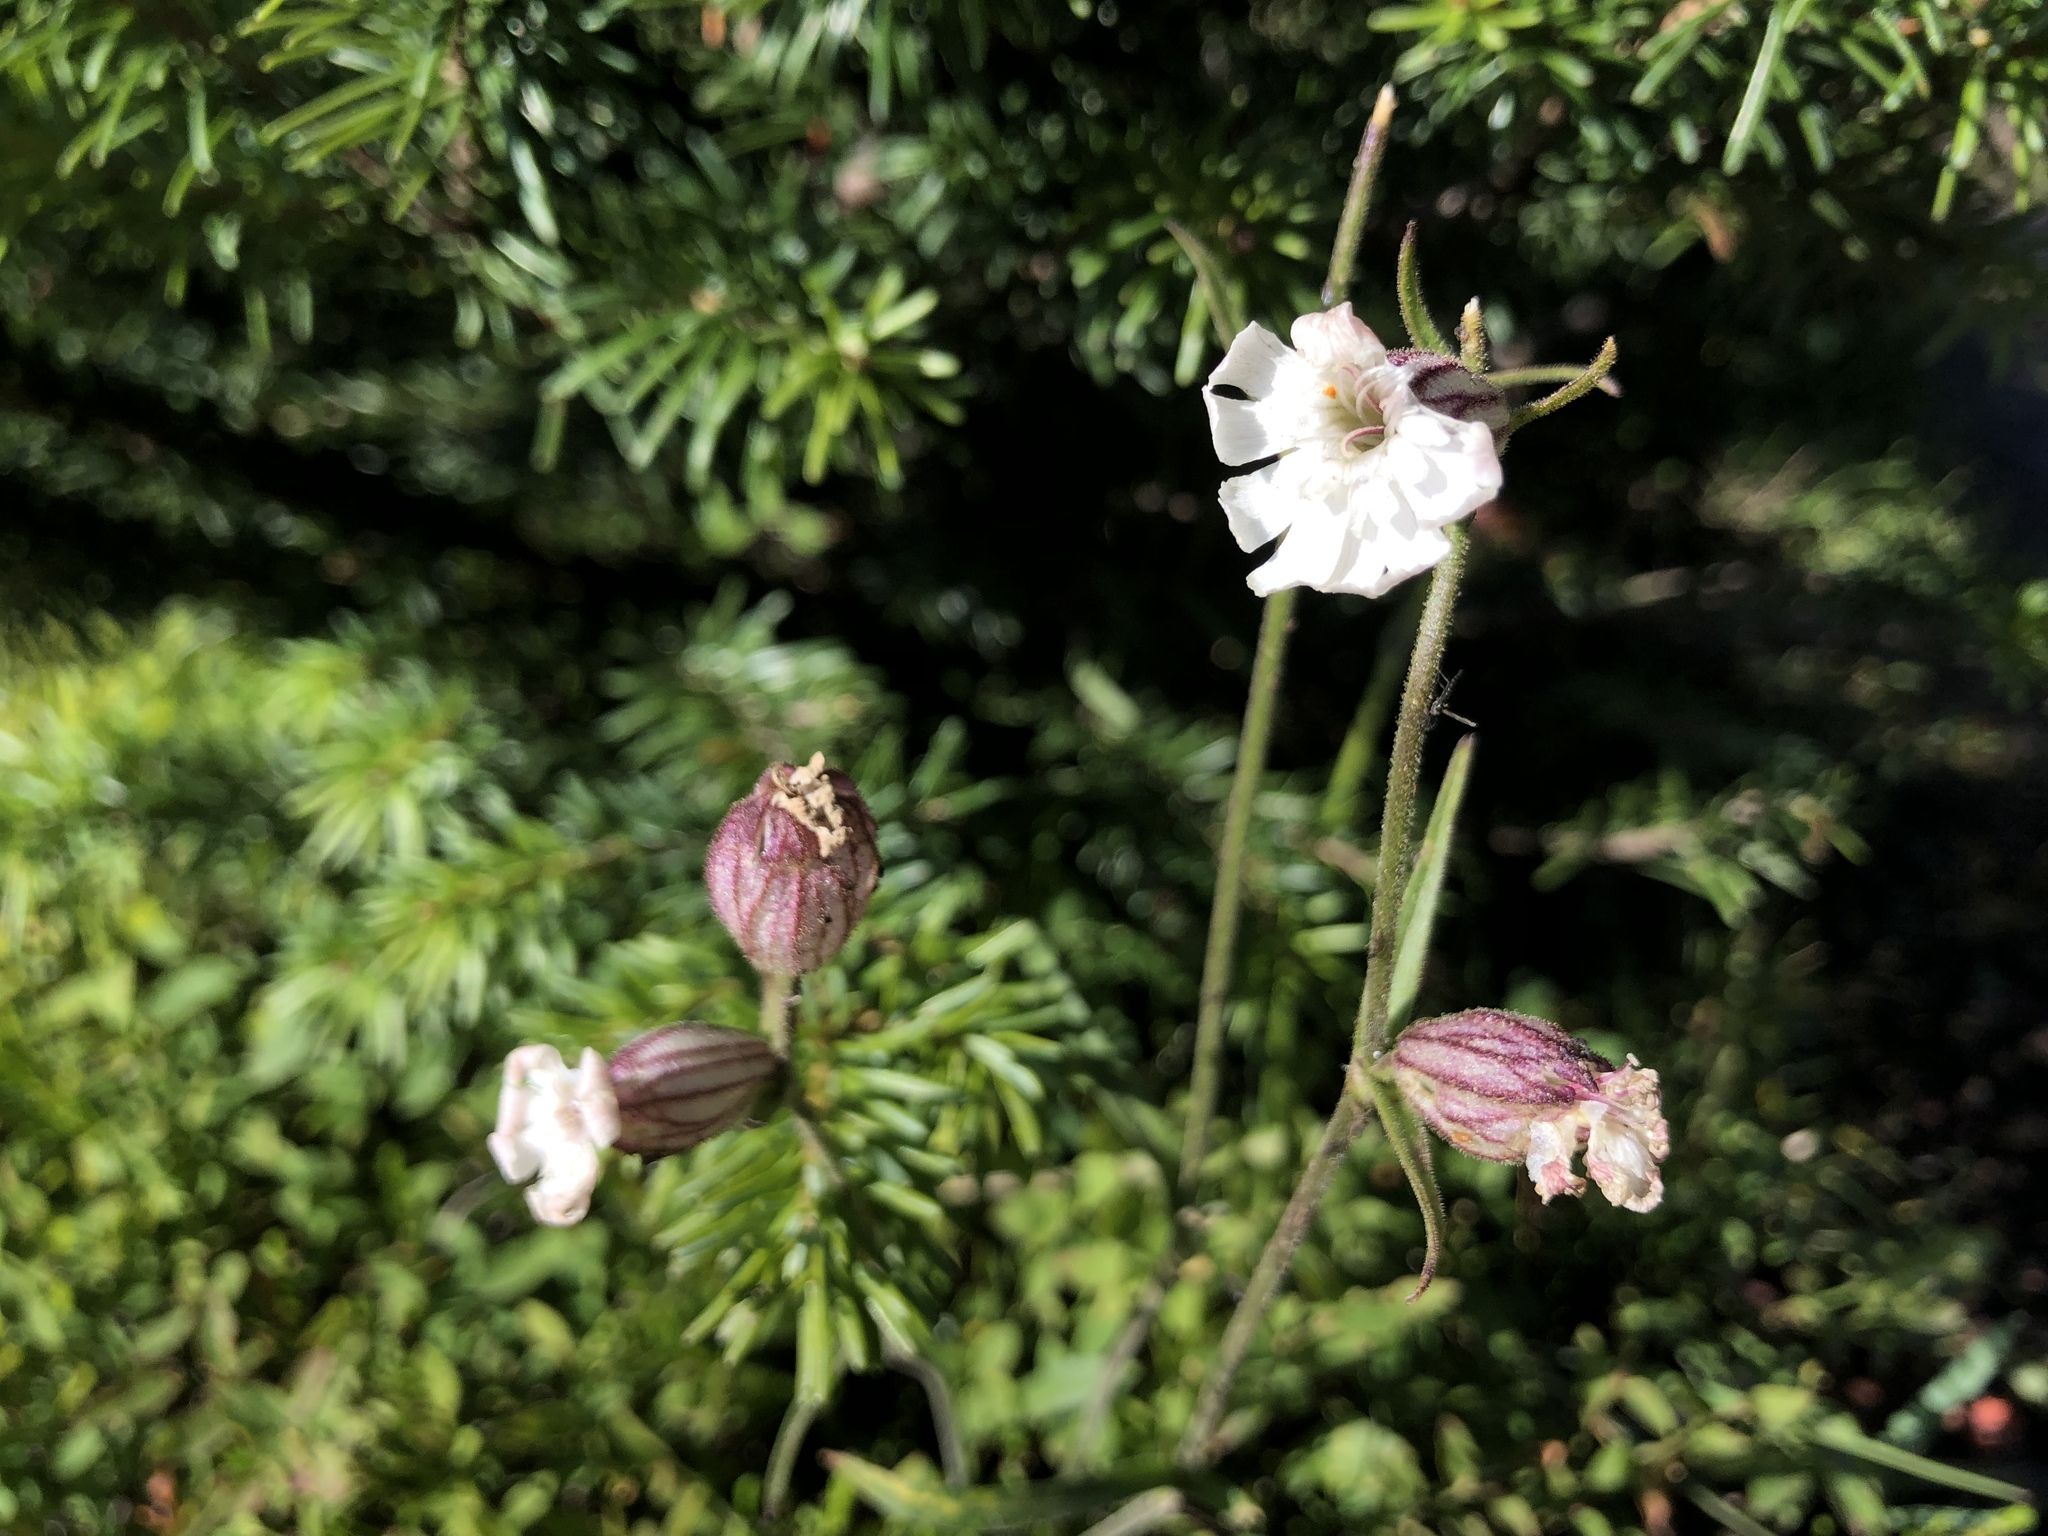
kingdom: Plantae
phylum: Tracheophyta
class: Magnoliopsida
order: Caryophyllales
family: Caryophyllaceae
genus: Silene
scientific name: Silene drummondii
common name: Drummond's catchfly
